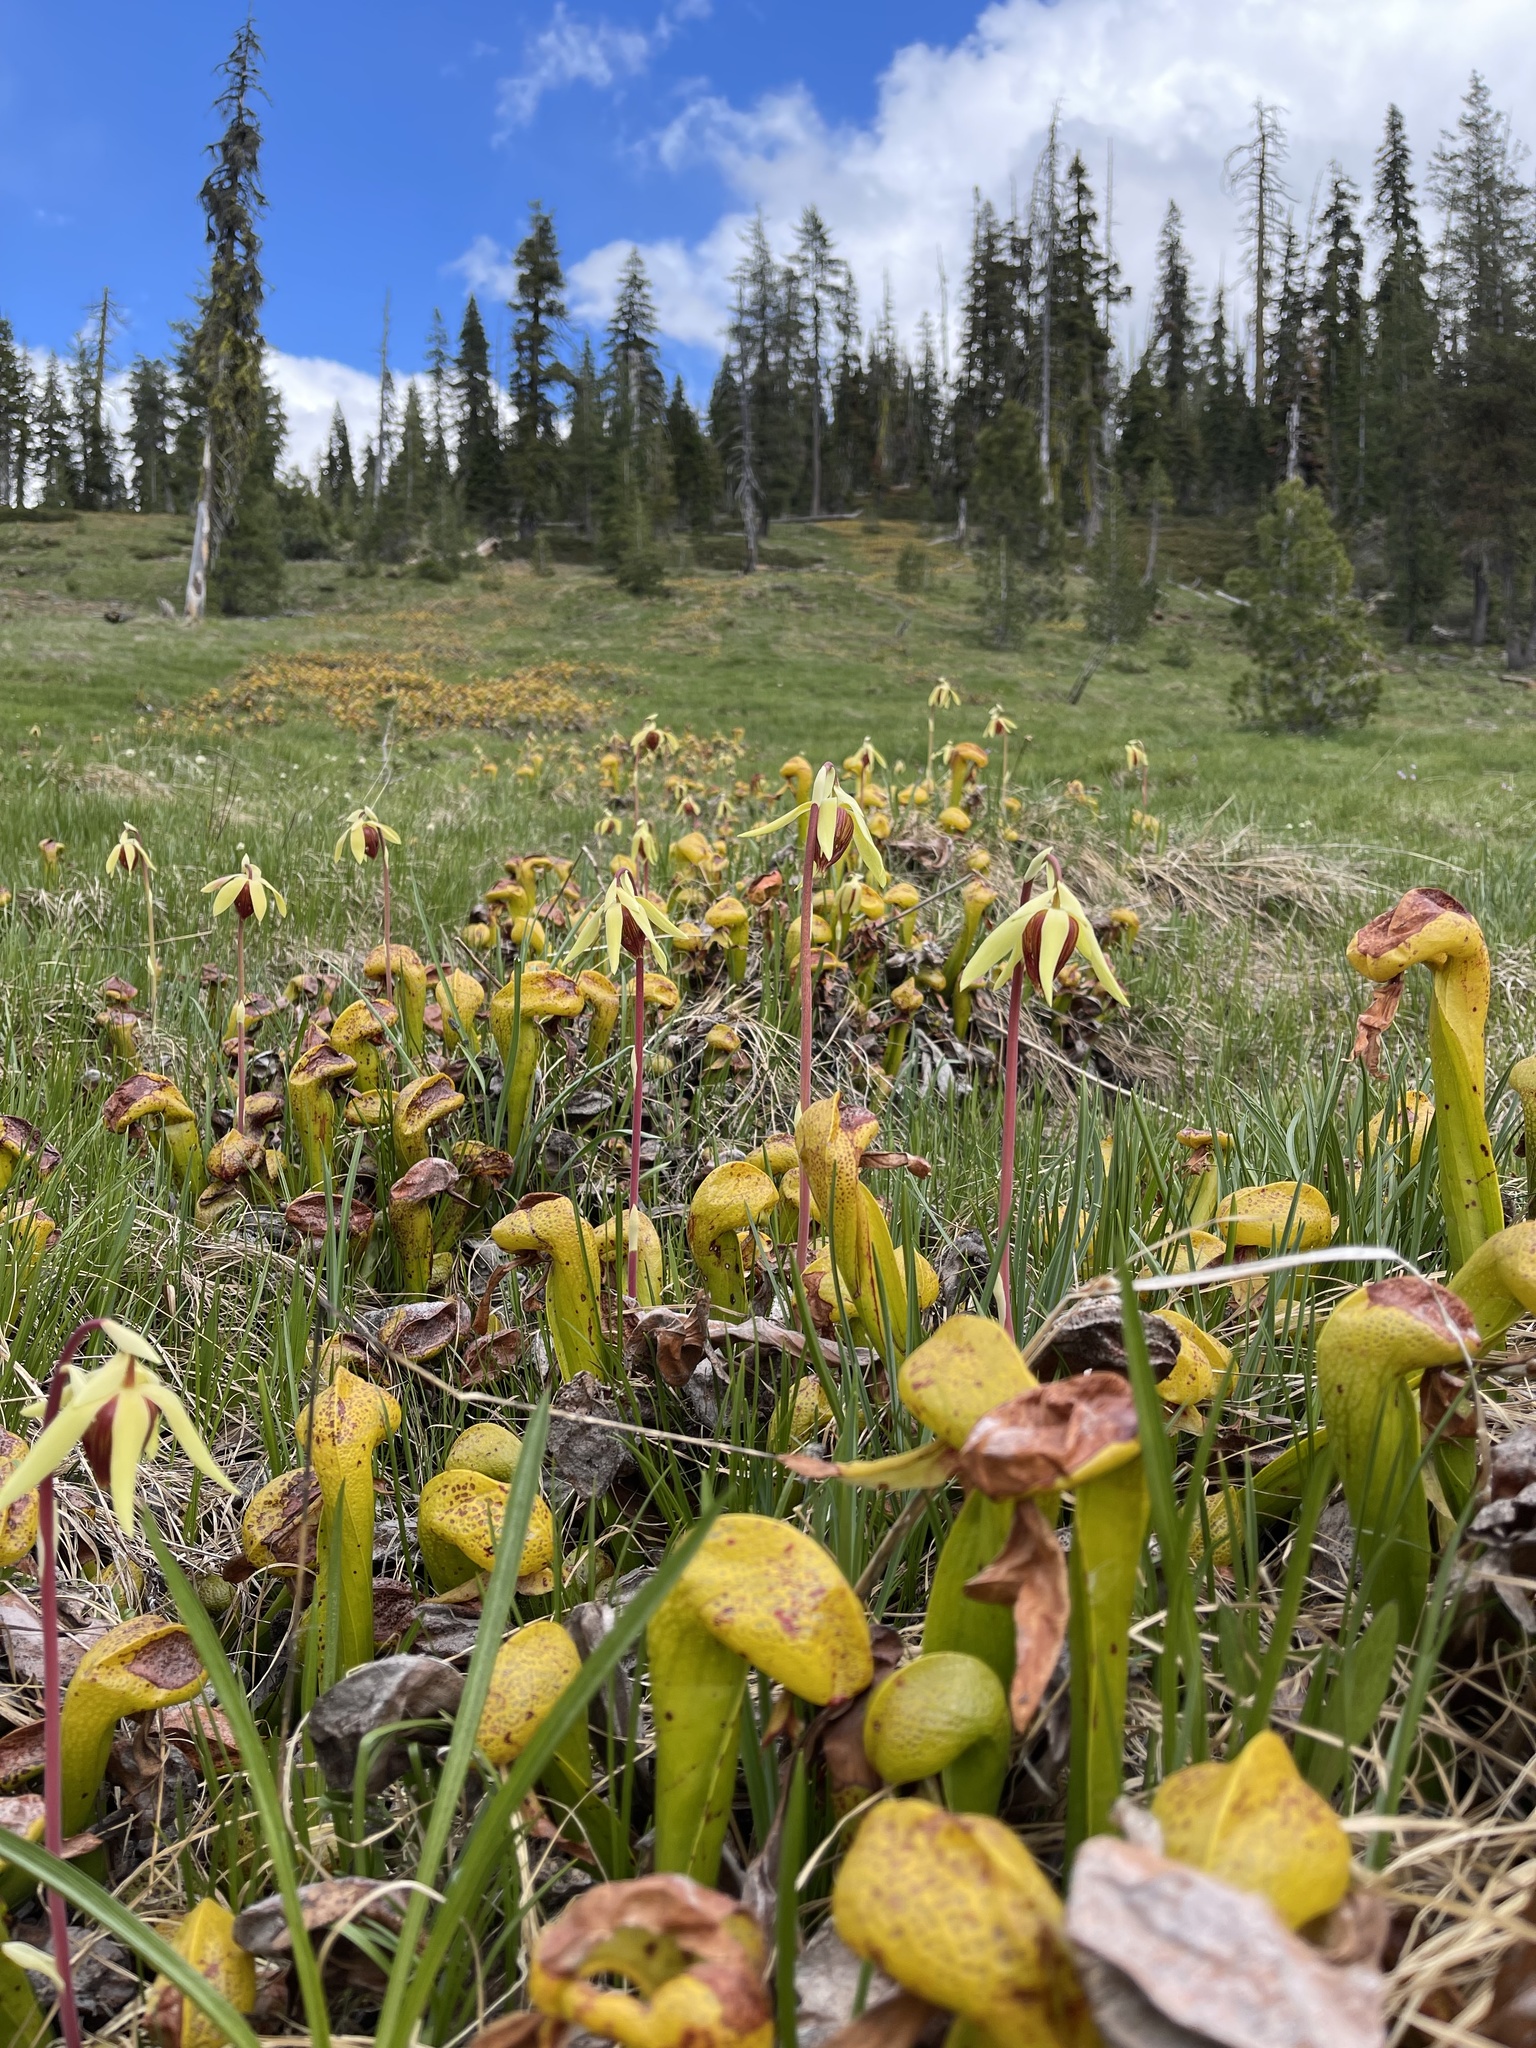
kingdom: Plantae
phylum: Tracheophyta
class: Magnoliopsida
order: Ericales
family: Sarraceniaceae
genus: Darlingtonia
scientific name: Darlingtonia californica
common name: California pitcher plant
